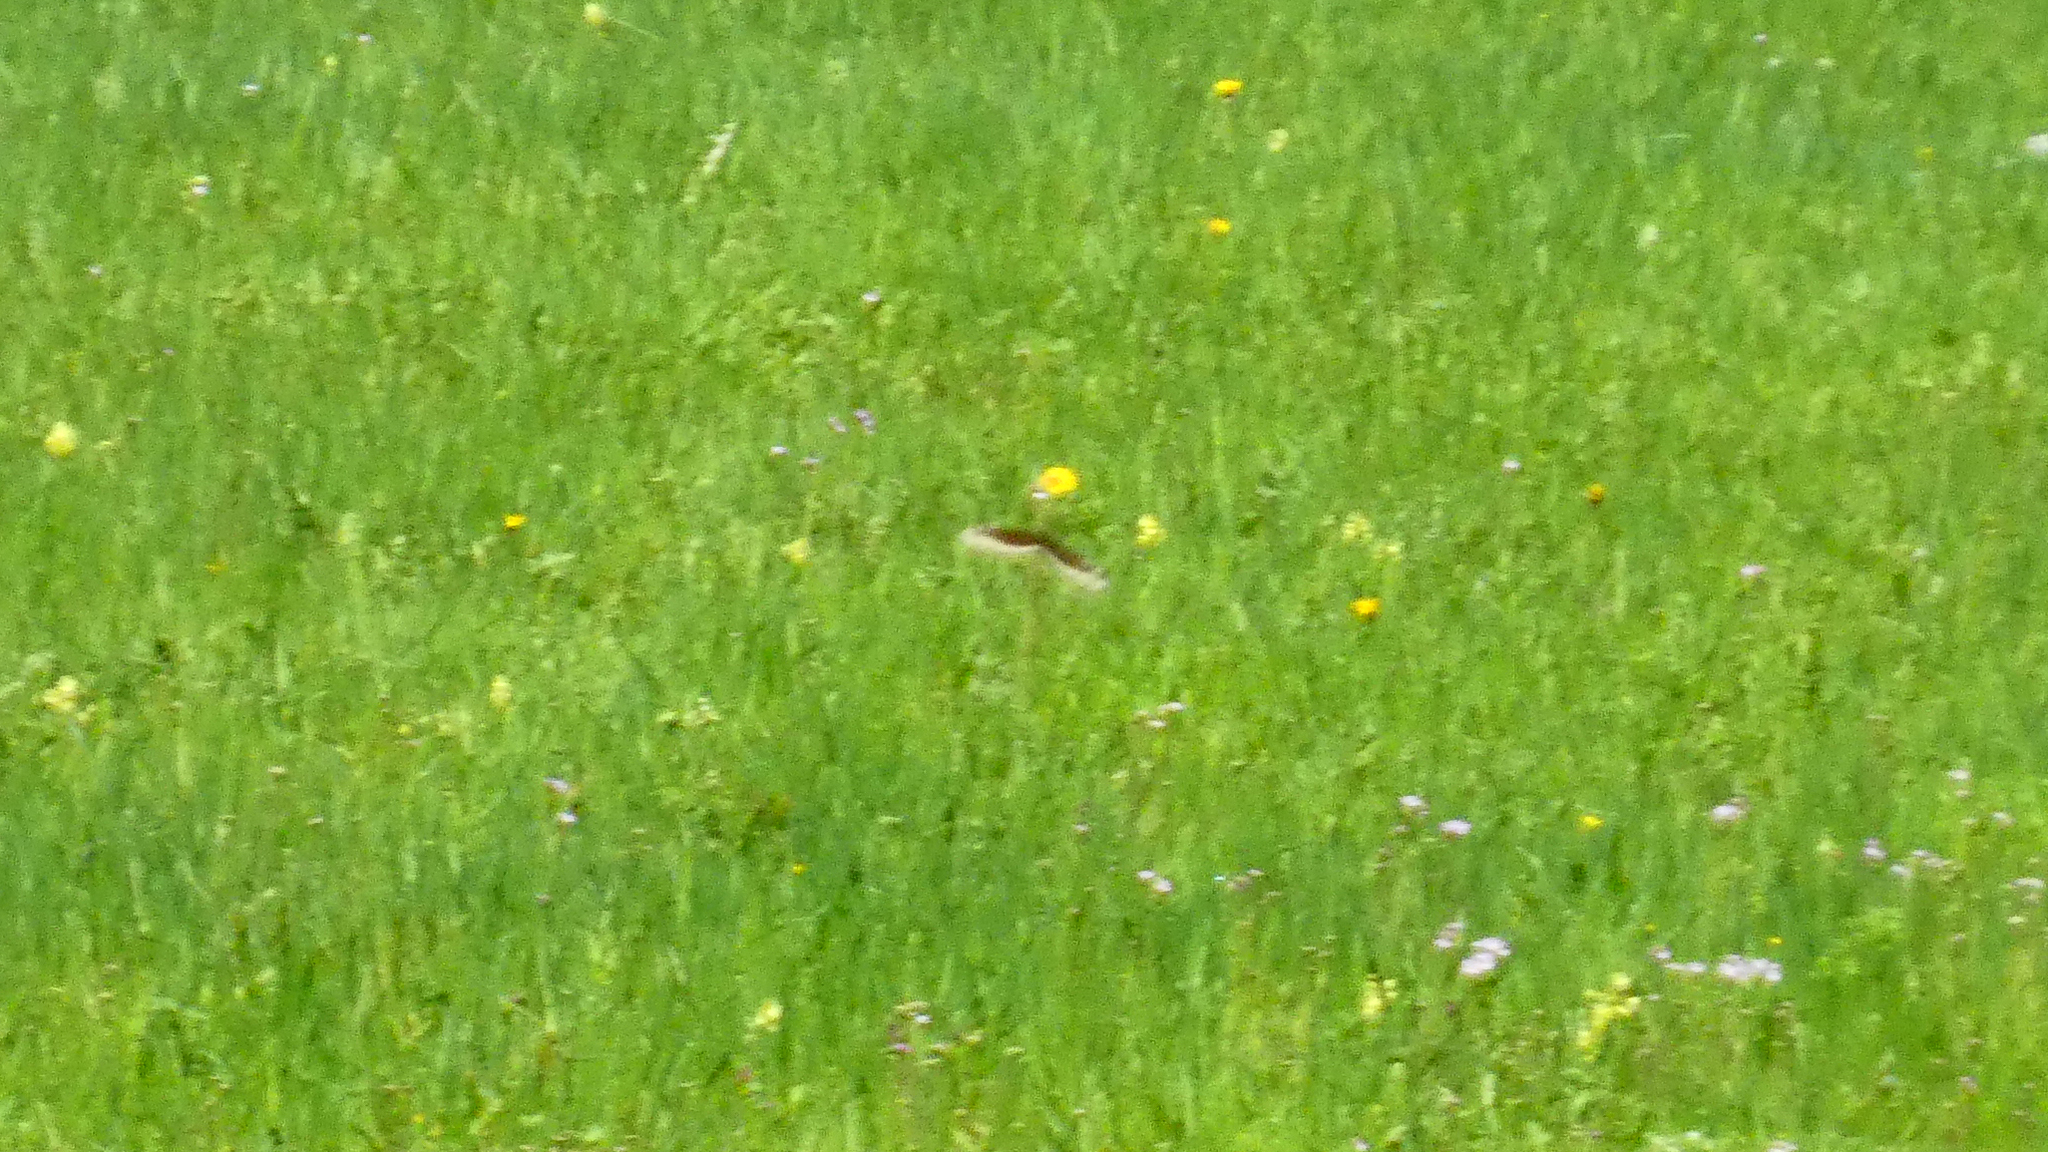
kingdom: Animalia
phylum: Arthropoda
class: Insecta
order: Lepidoptera
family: Nymphalidae
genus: Nymphalis
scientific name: Nymphalis antiopa
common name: Camberwell beauty
